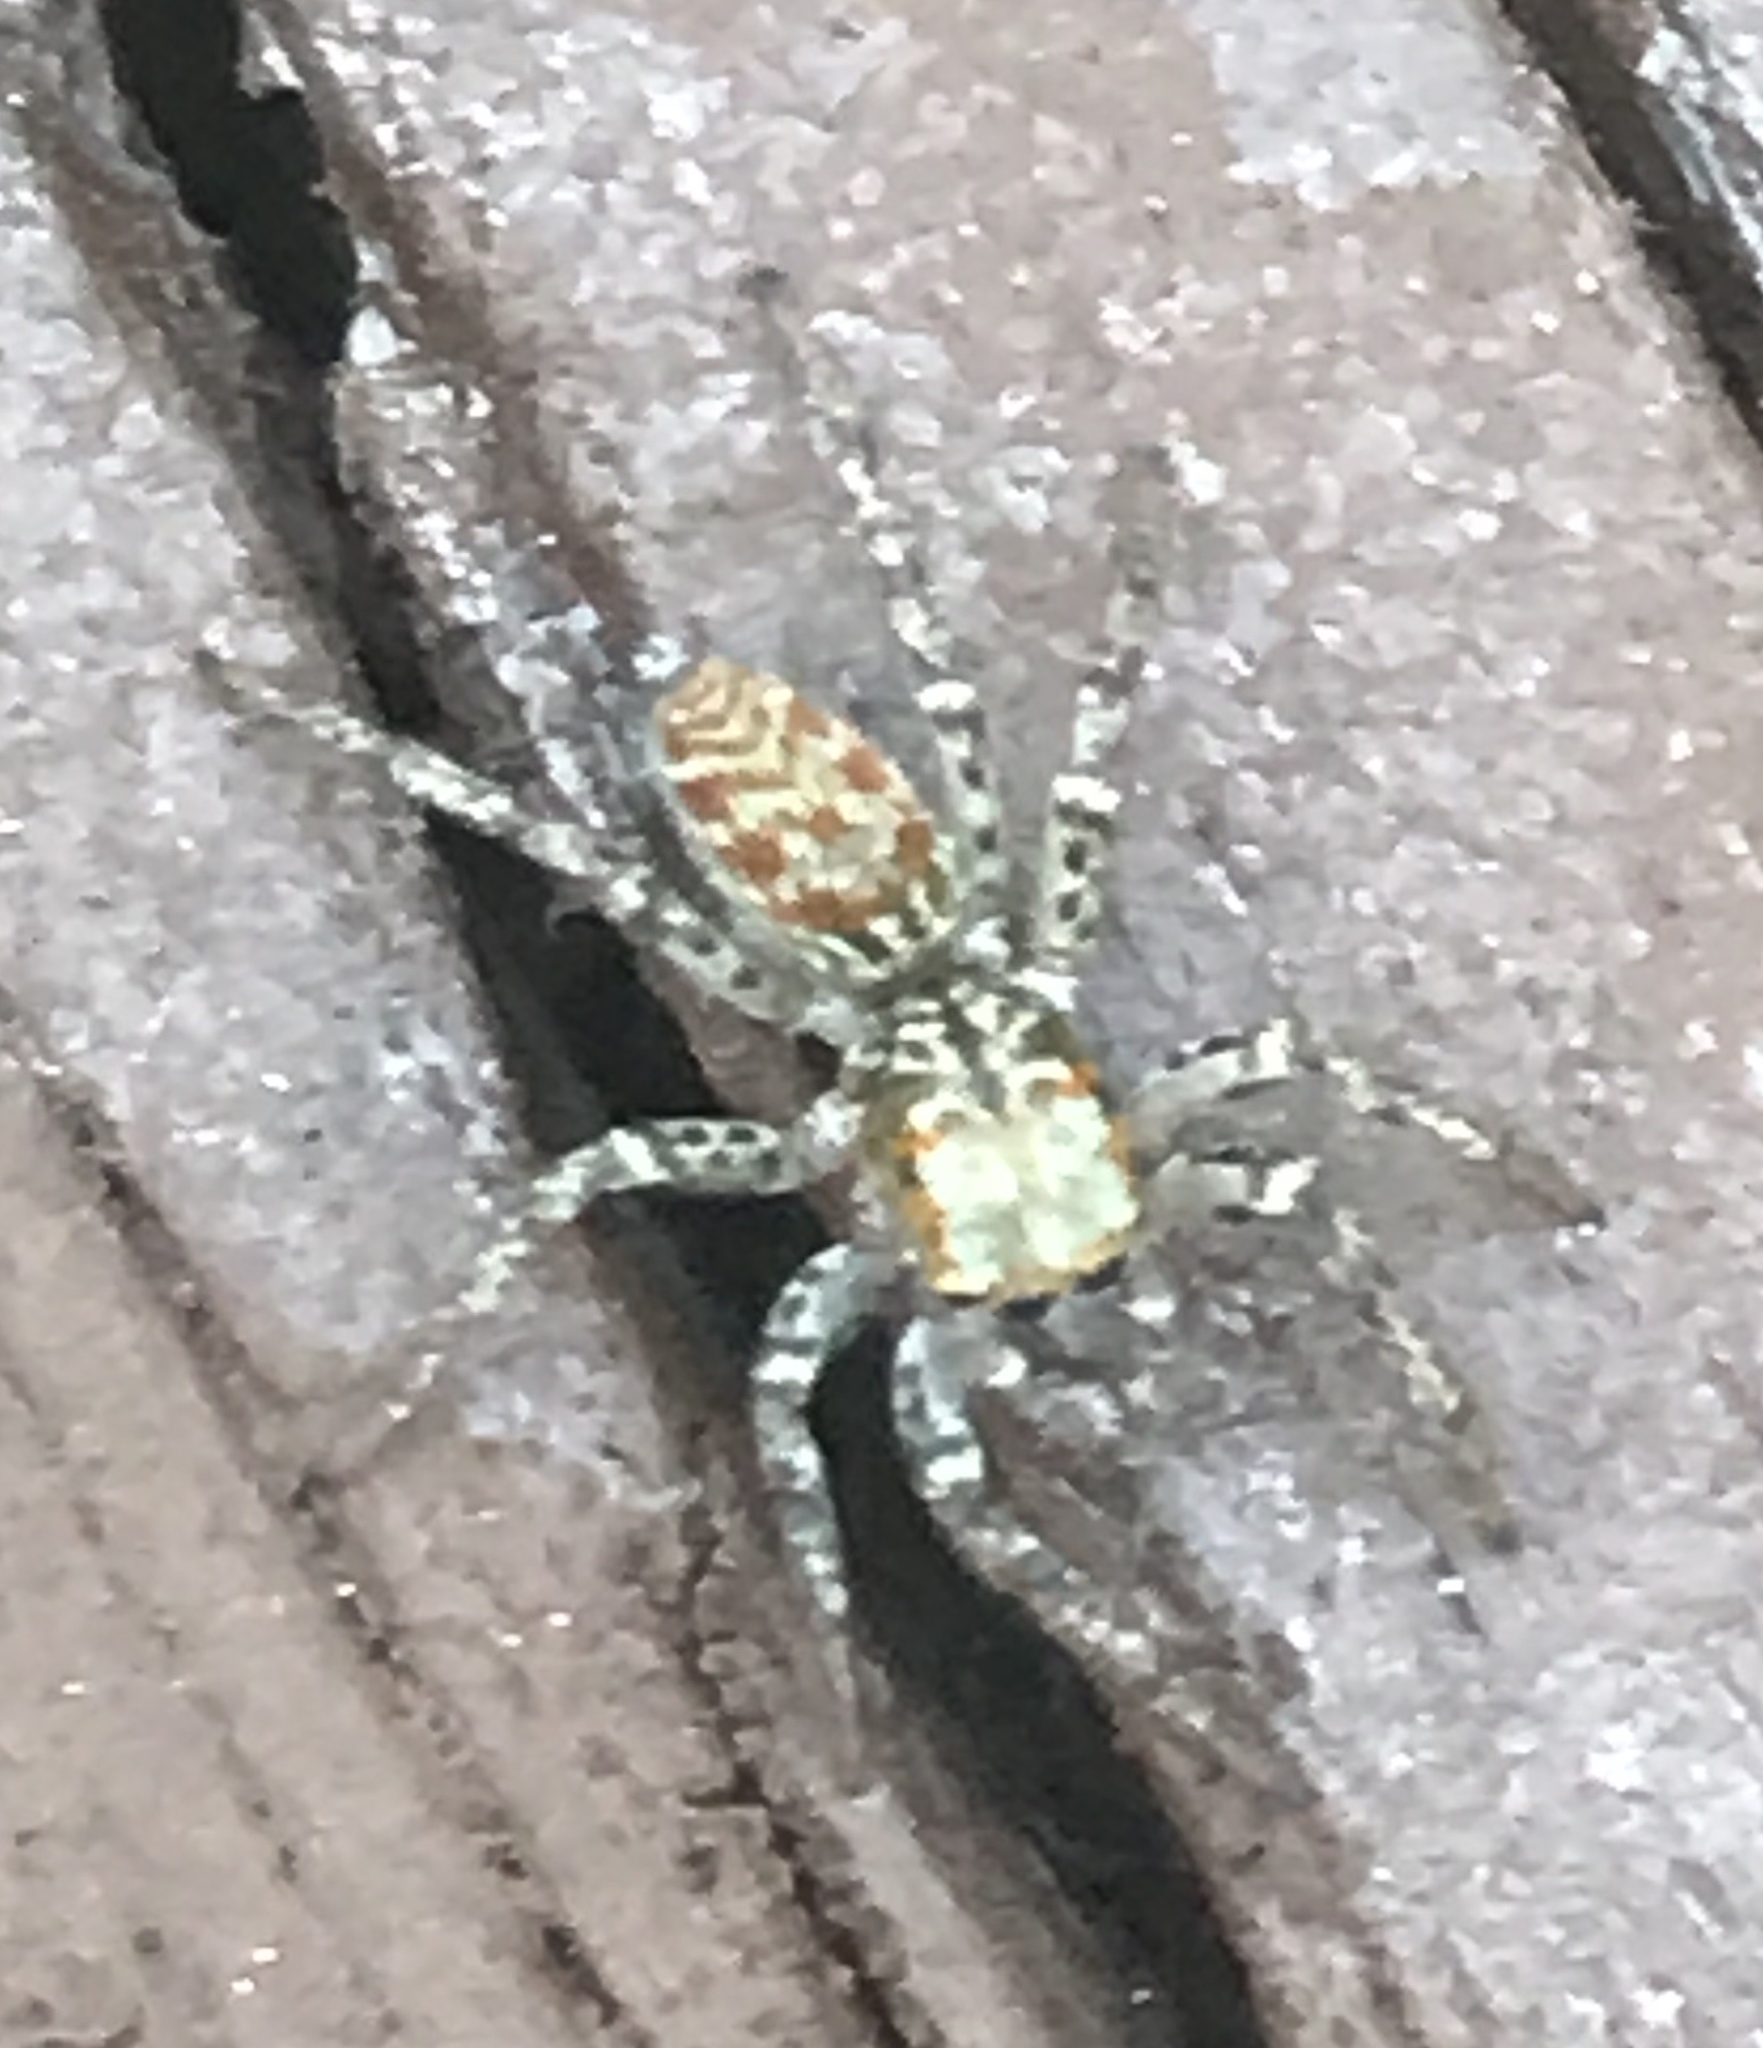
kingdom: Animalia
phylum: Arthropoda
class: Arachnida
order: Araneae
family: Salticidae
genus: Maevia
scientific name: Maevia inclemens
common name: Dimorphic jumper
